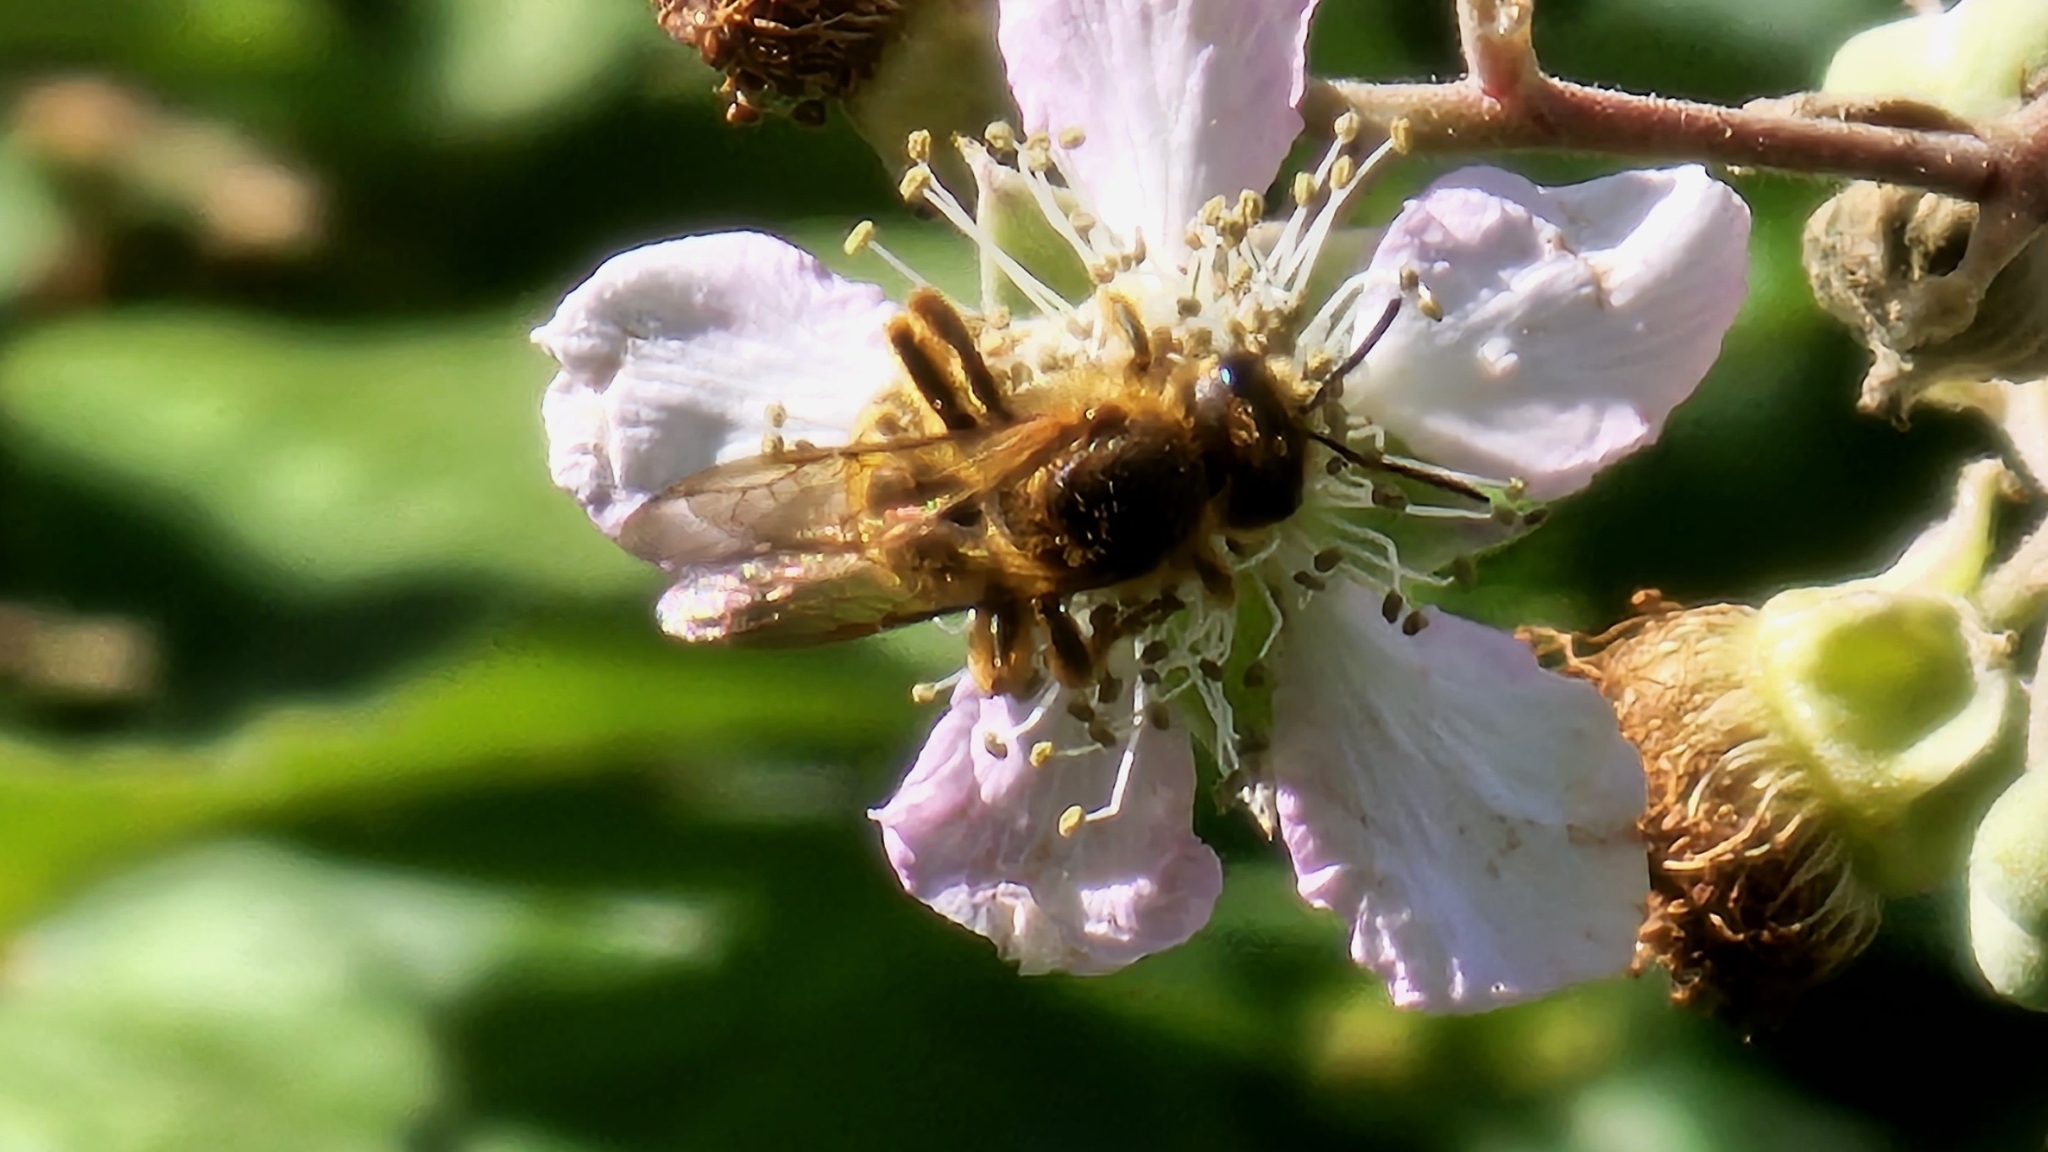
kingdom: Animalia
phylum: Arthropoda
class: Insecta
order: Hymenoptera
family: Halictidae
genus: Halictus
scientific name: Halictus scabiosae
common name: Great banded furrow bee
